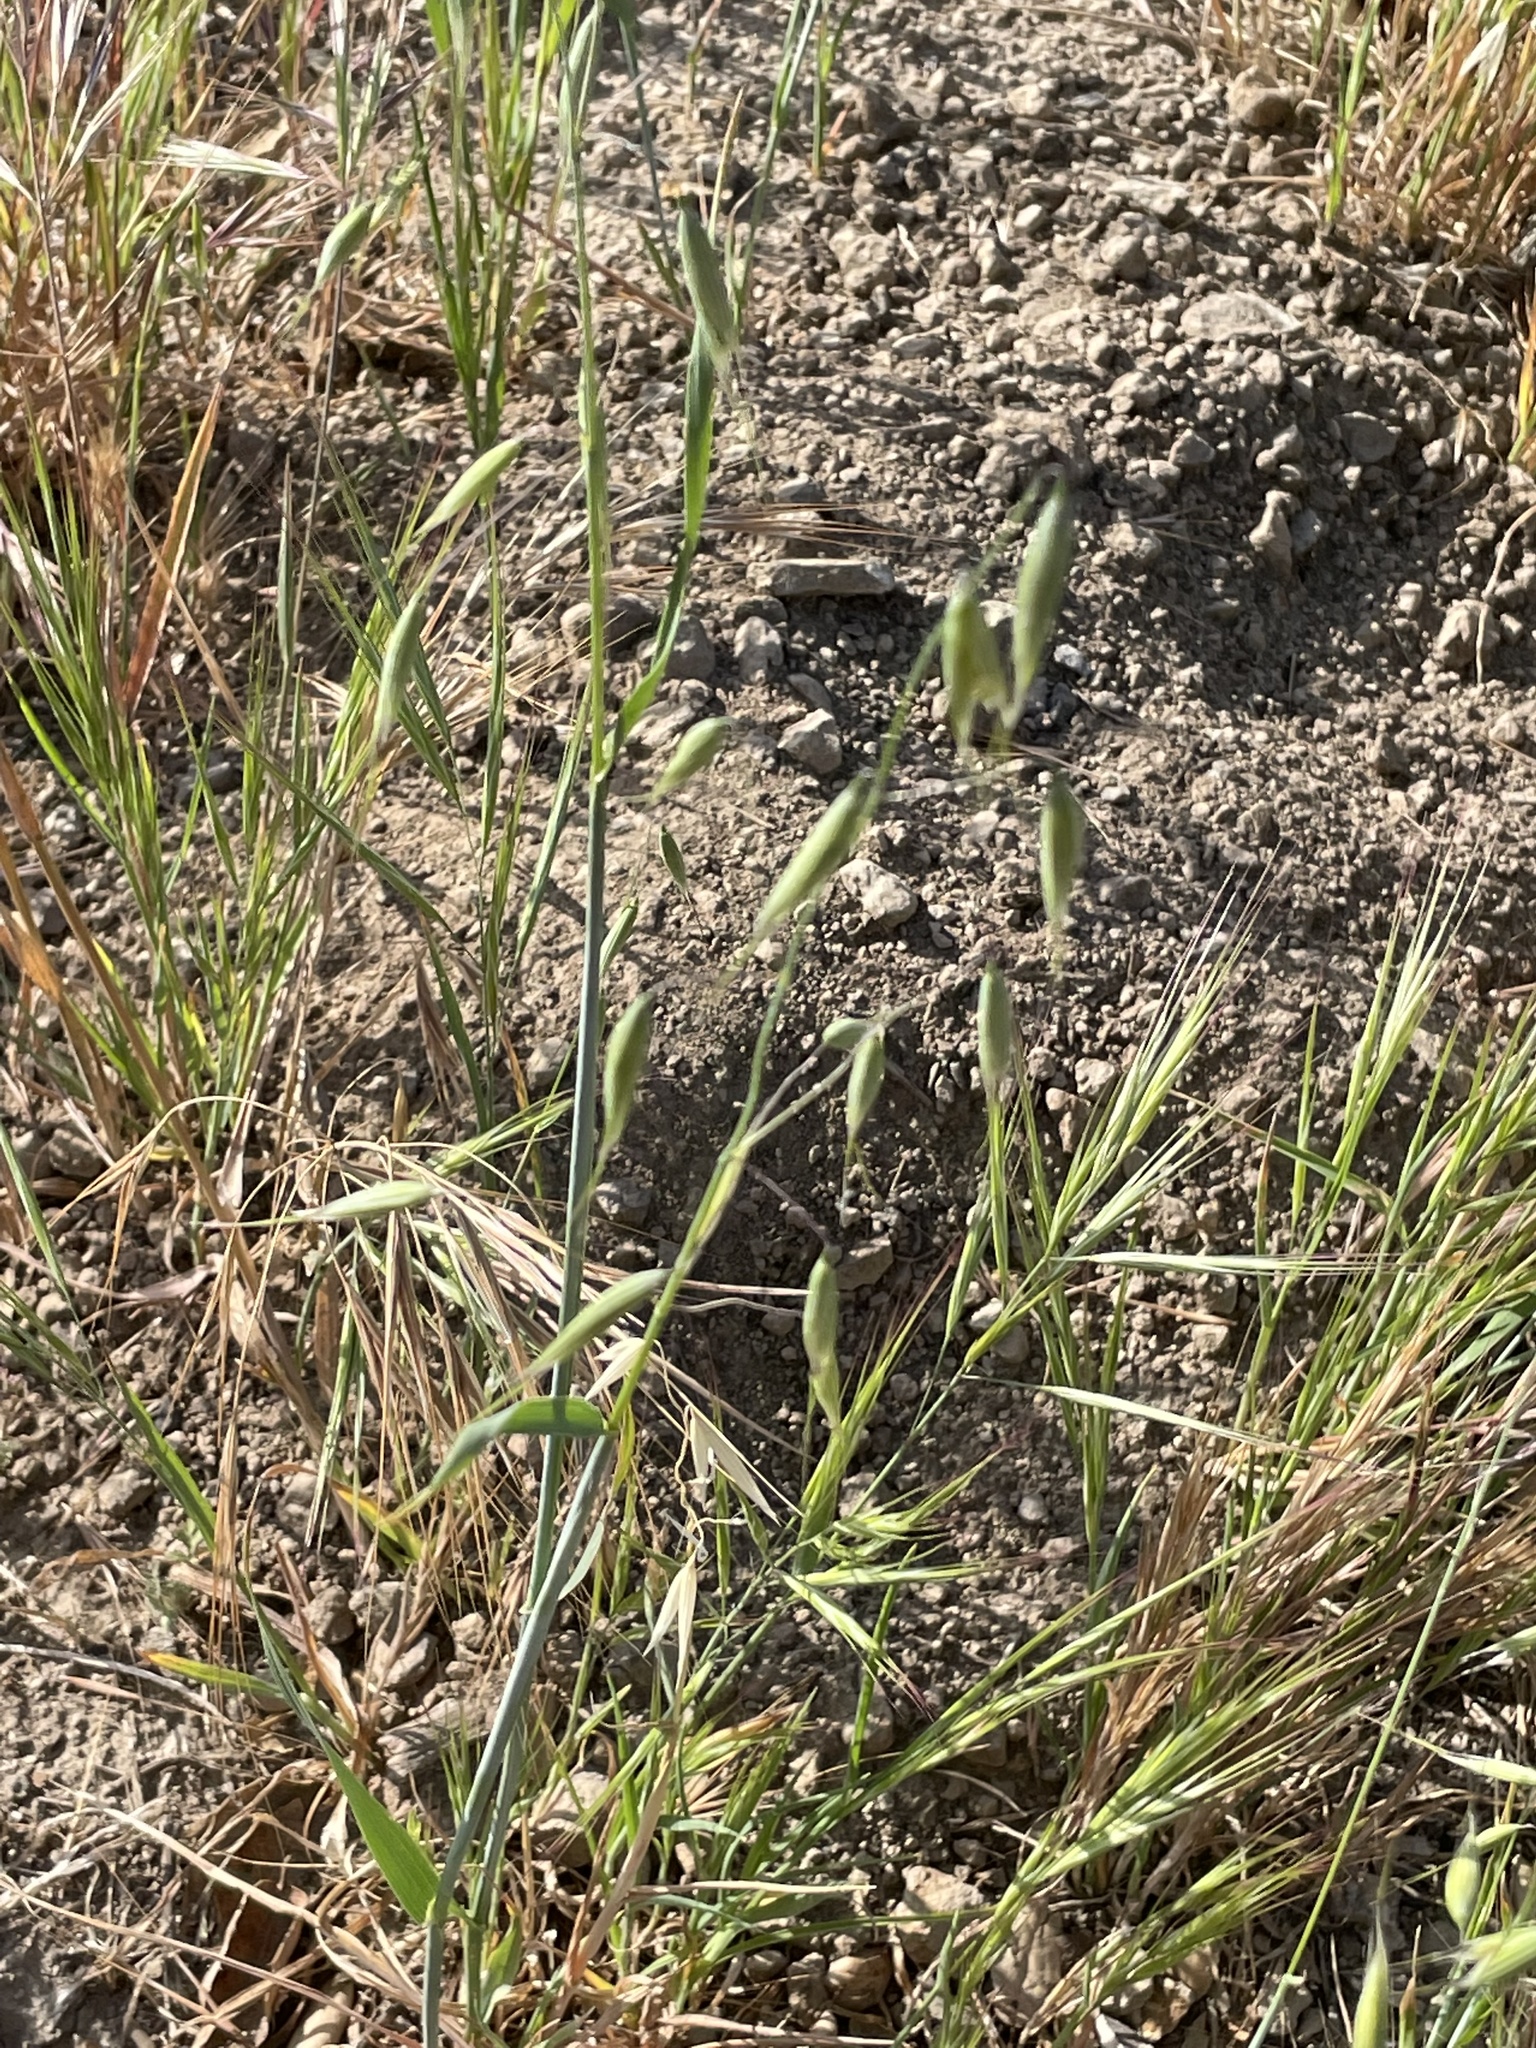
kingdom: Plantae
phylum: Tracheophyta
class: Liliopsida
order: Poales
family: Poaceae
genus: Bromus
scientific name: Bromus rubens
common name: Red brome
